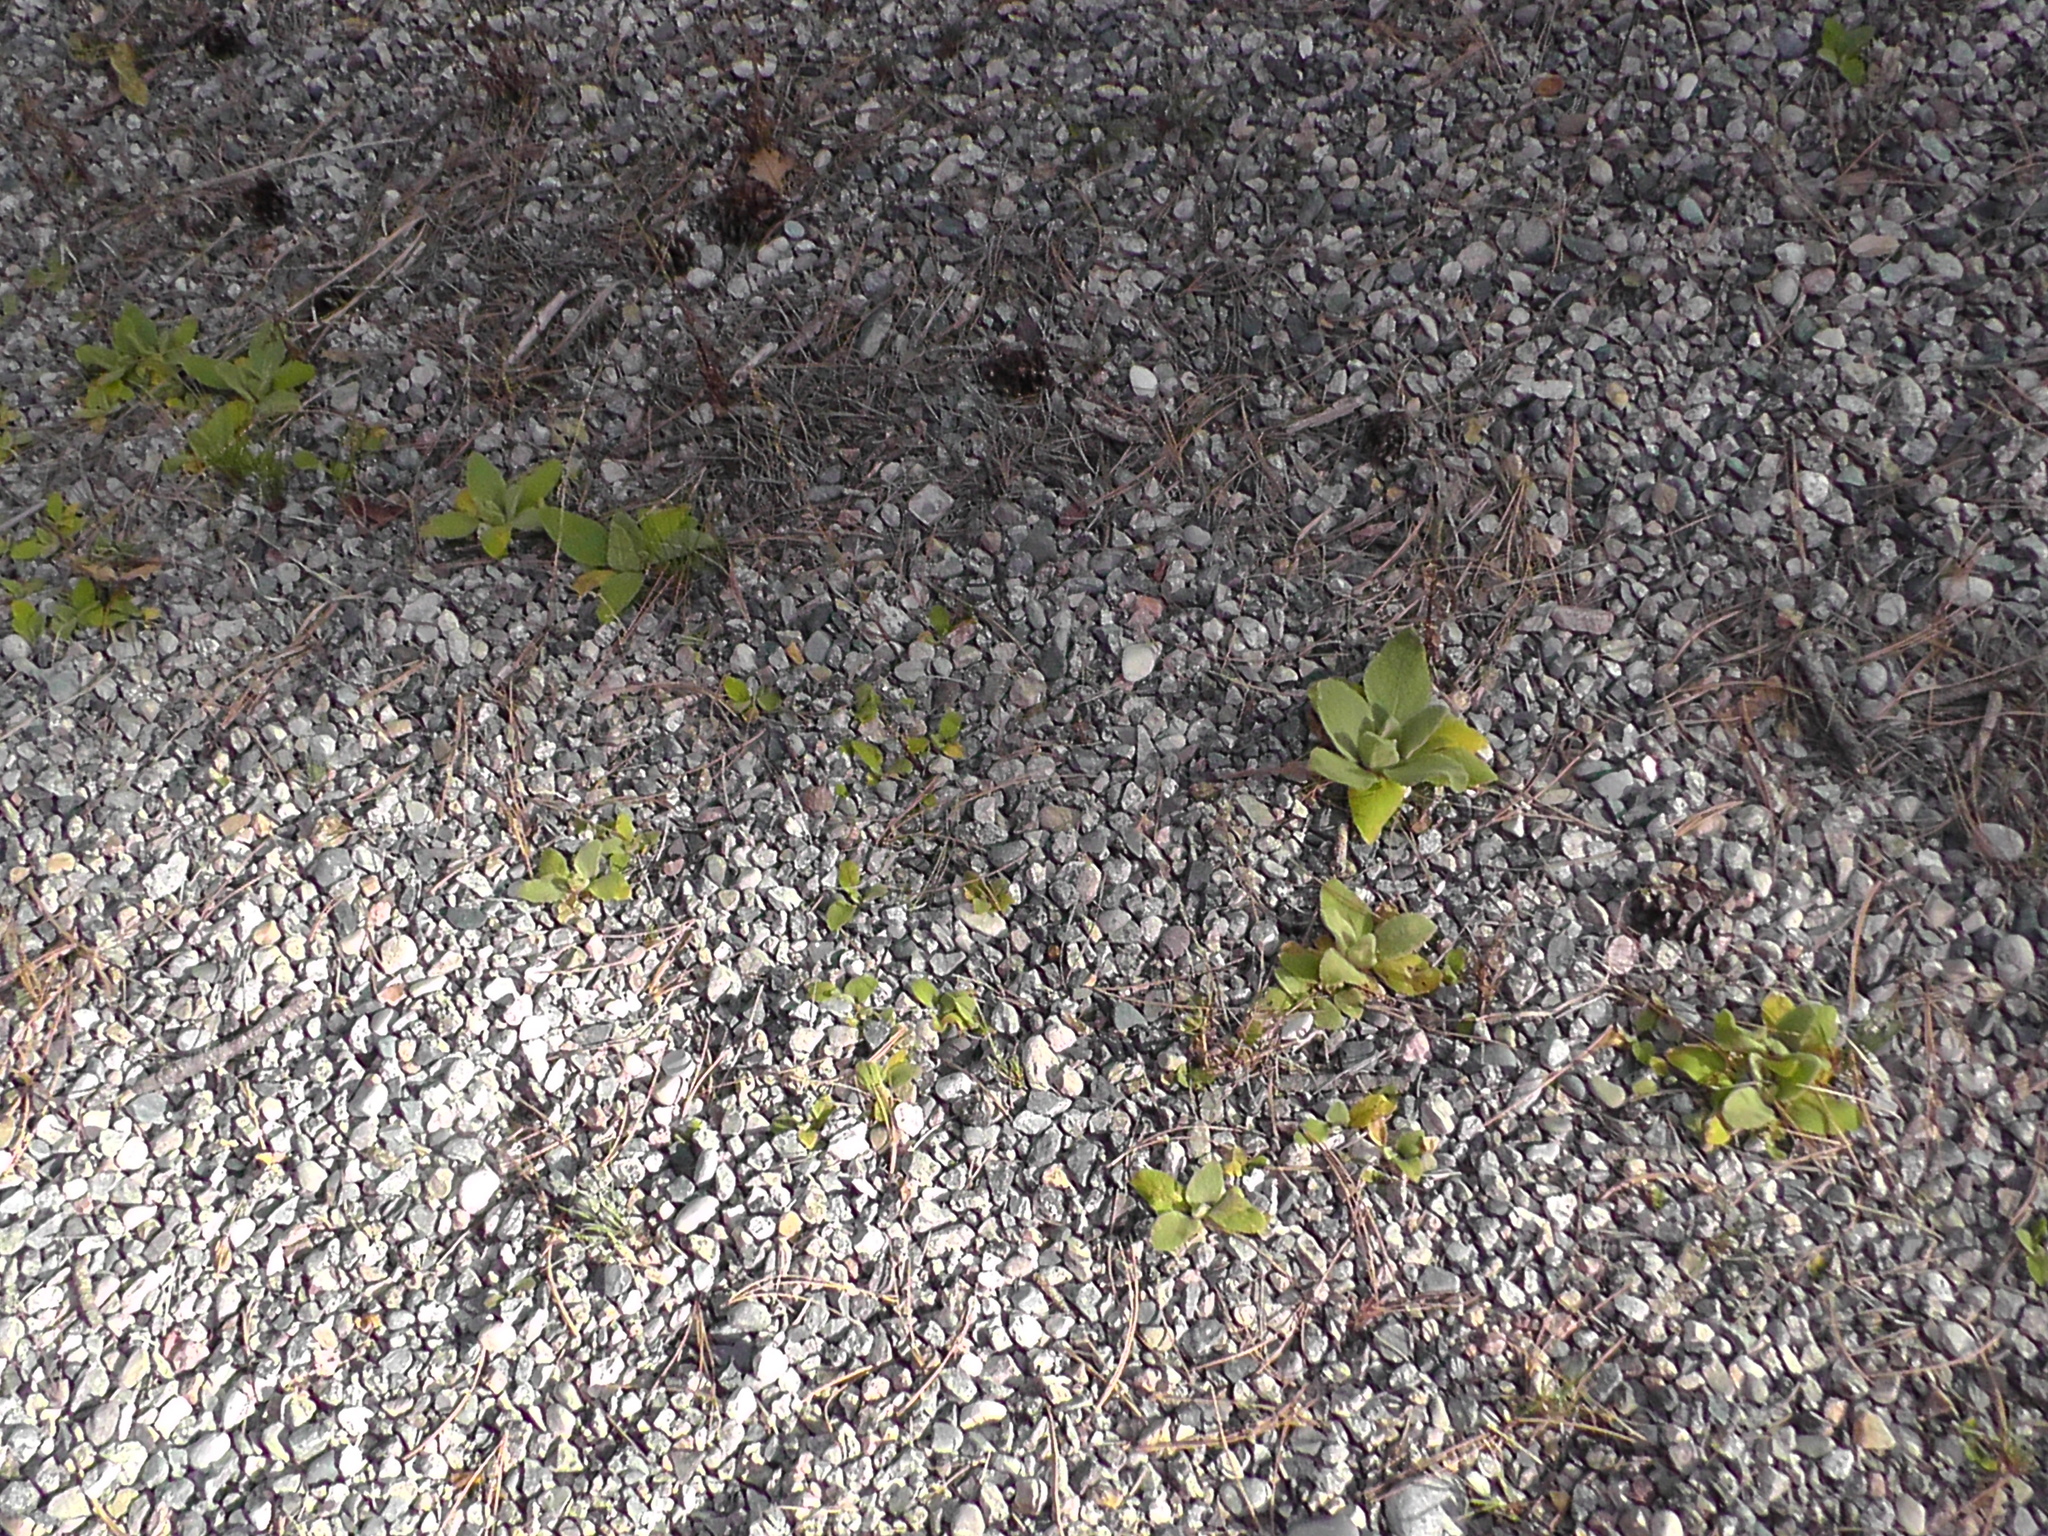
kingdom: Plantae
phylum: Tracheophyta
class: Magnoliopsida
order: Lamiales
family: Scrophulariaceae
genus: Verbascum
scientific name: Verbascum thapsus
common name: Common mullein
